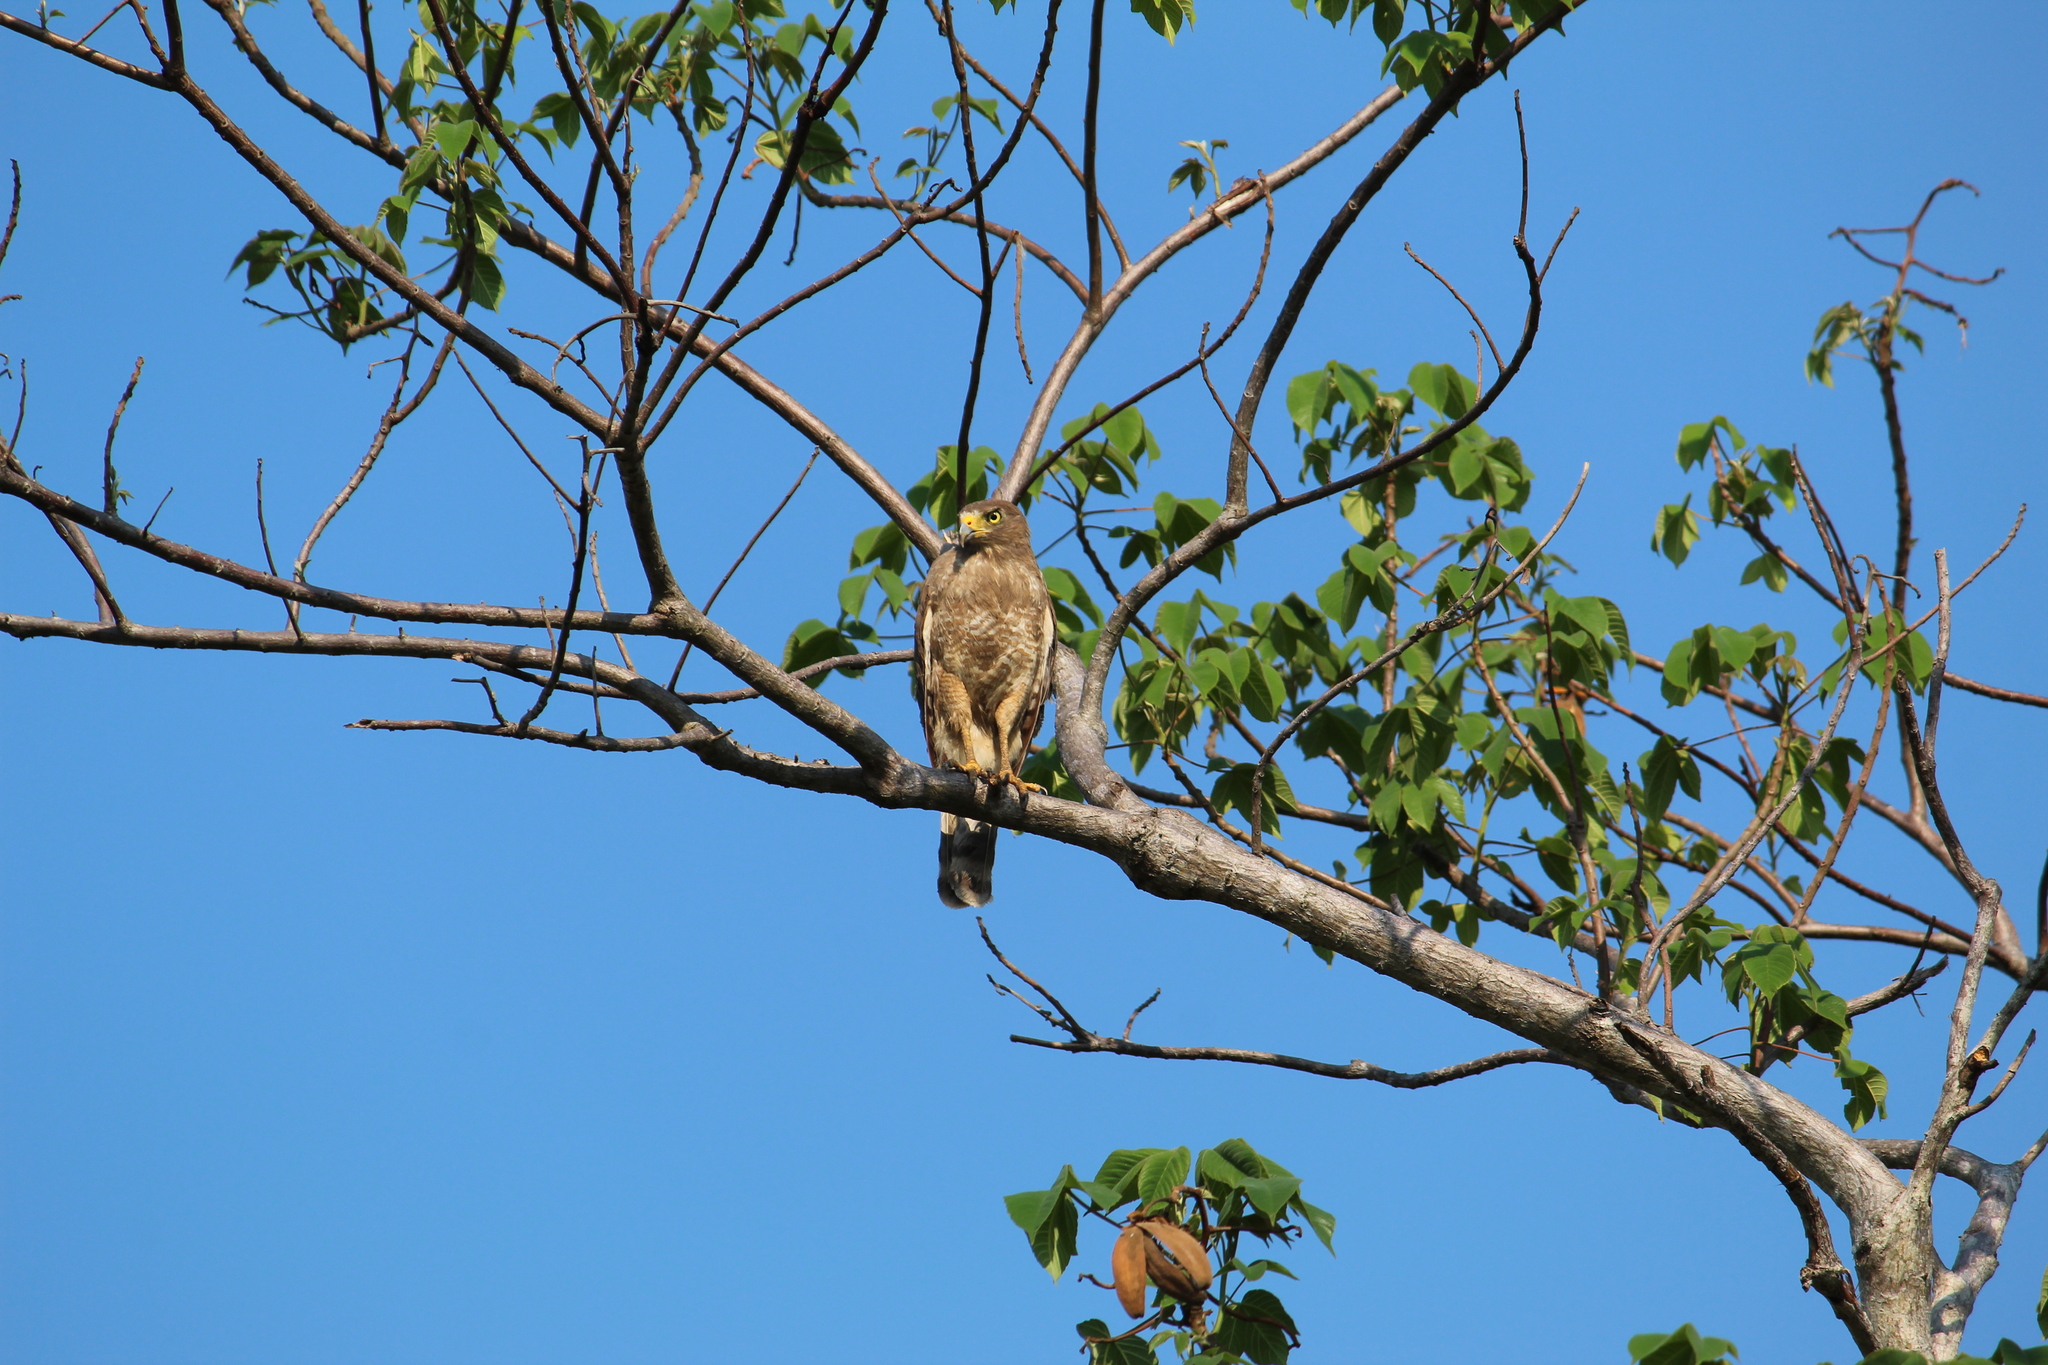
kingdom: Animalia
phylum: Chordata
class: Aves
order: Accipitriformes
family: Accipitridae
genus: Rupornis
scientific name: Rupornis magnirostris
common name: Roadside hawk
